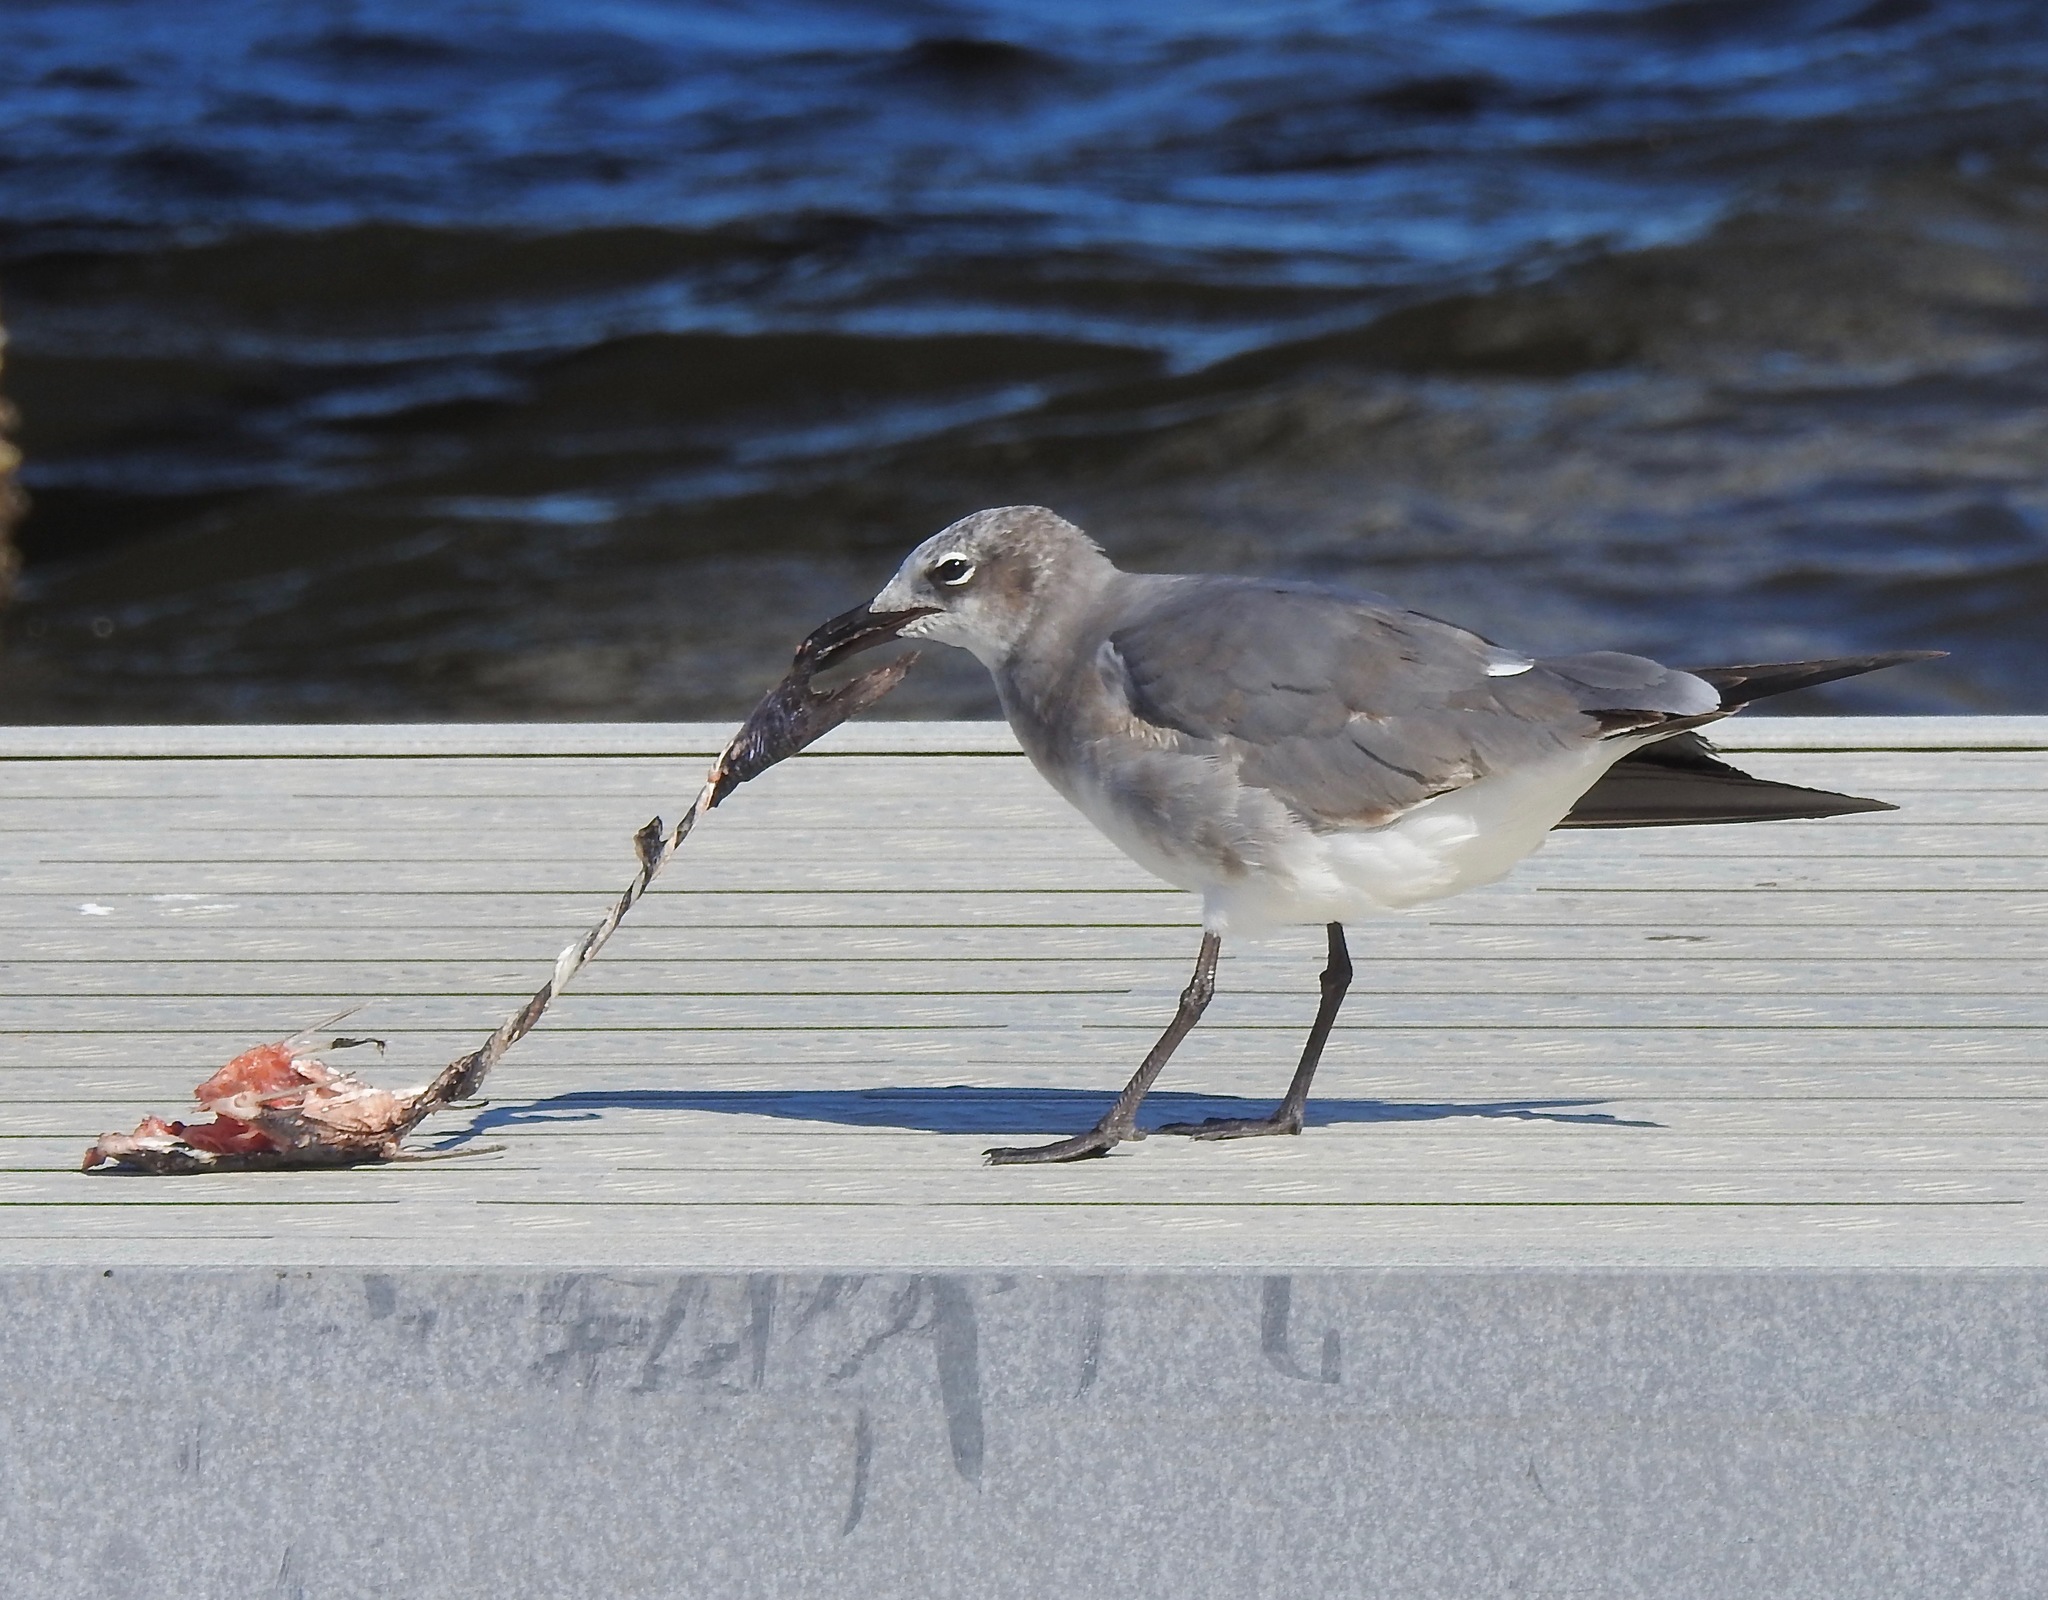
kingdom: Animalia
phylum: Chordata
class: Aves
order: Charadriiformes
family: Laridae
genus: Leucophaeus
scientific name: Leucophaeus atricilla
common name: Laughing gull
